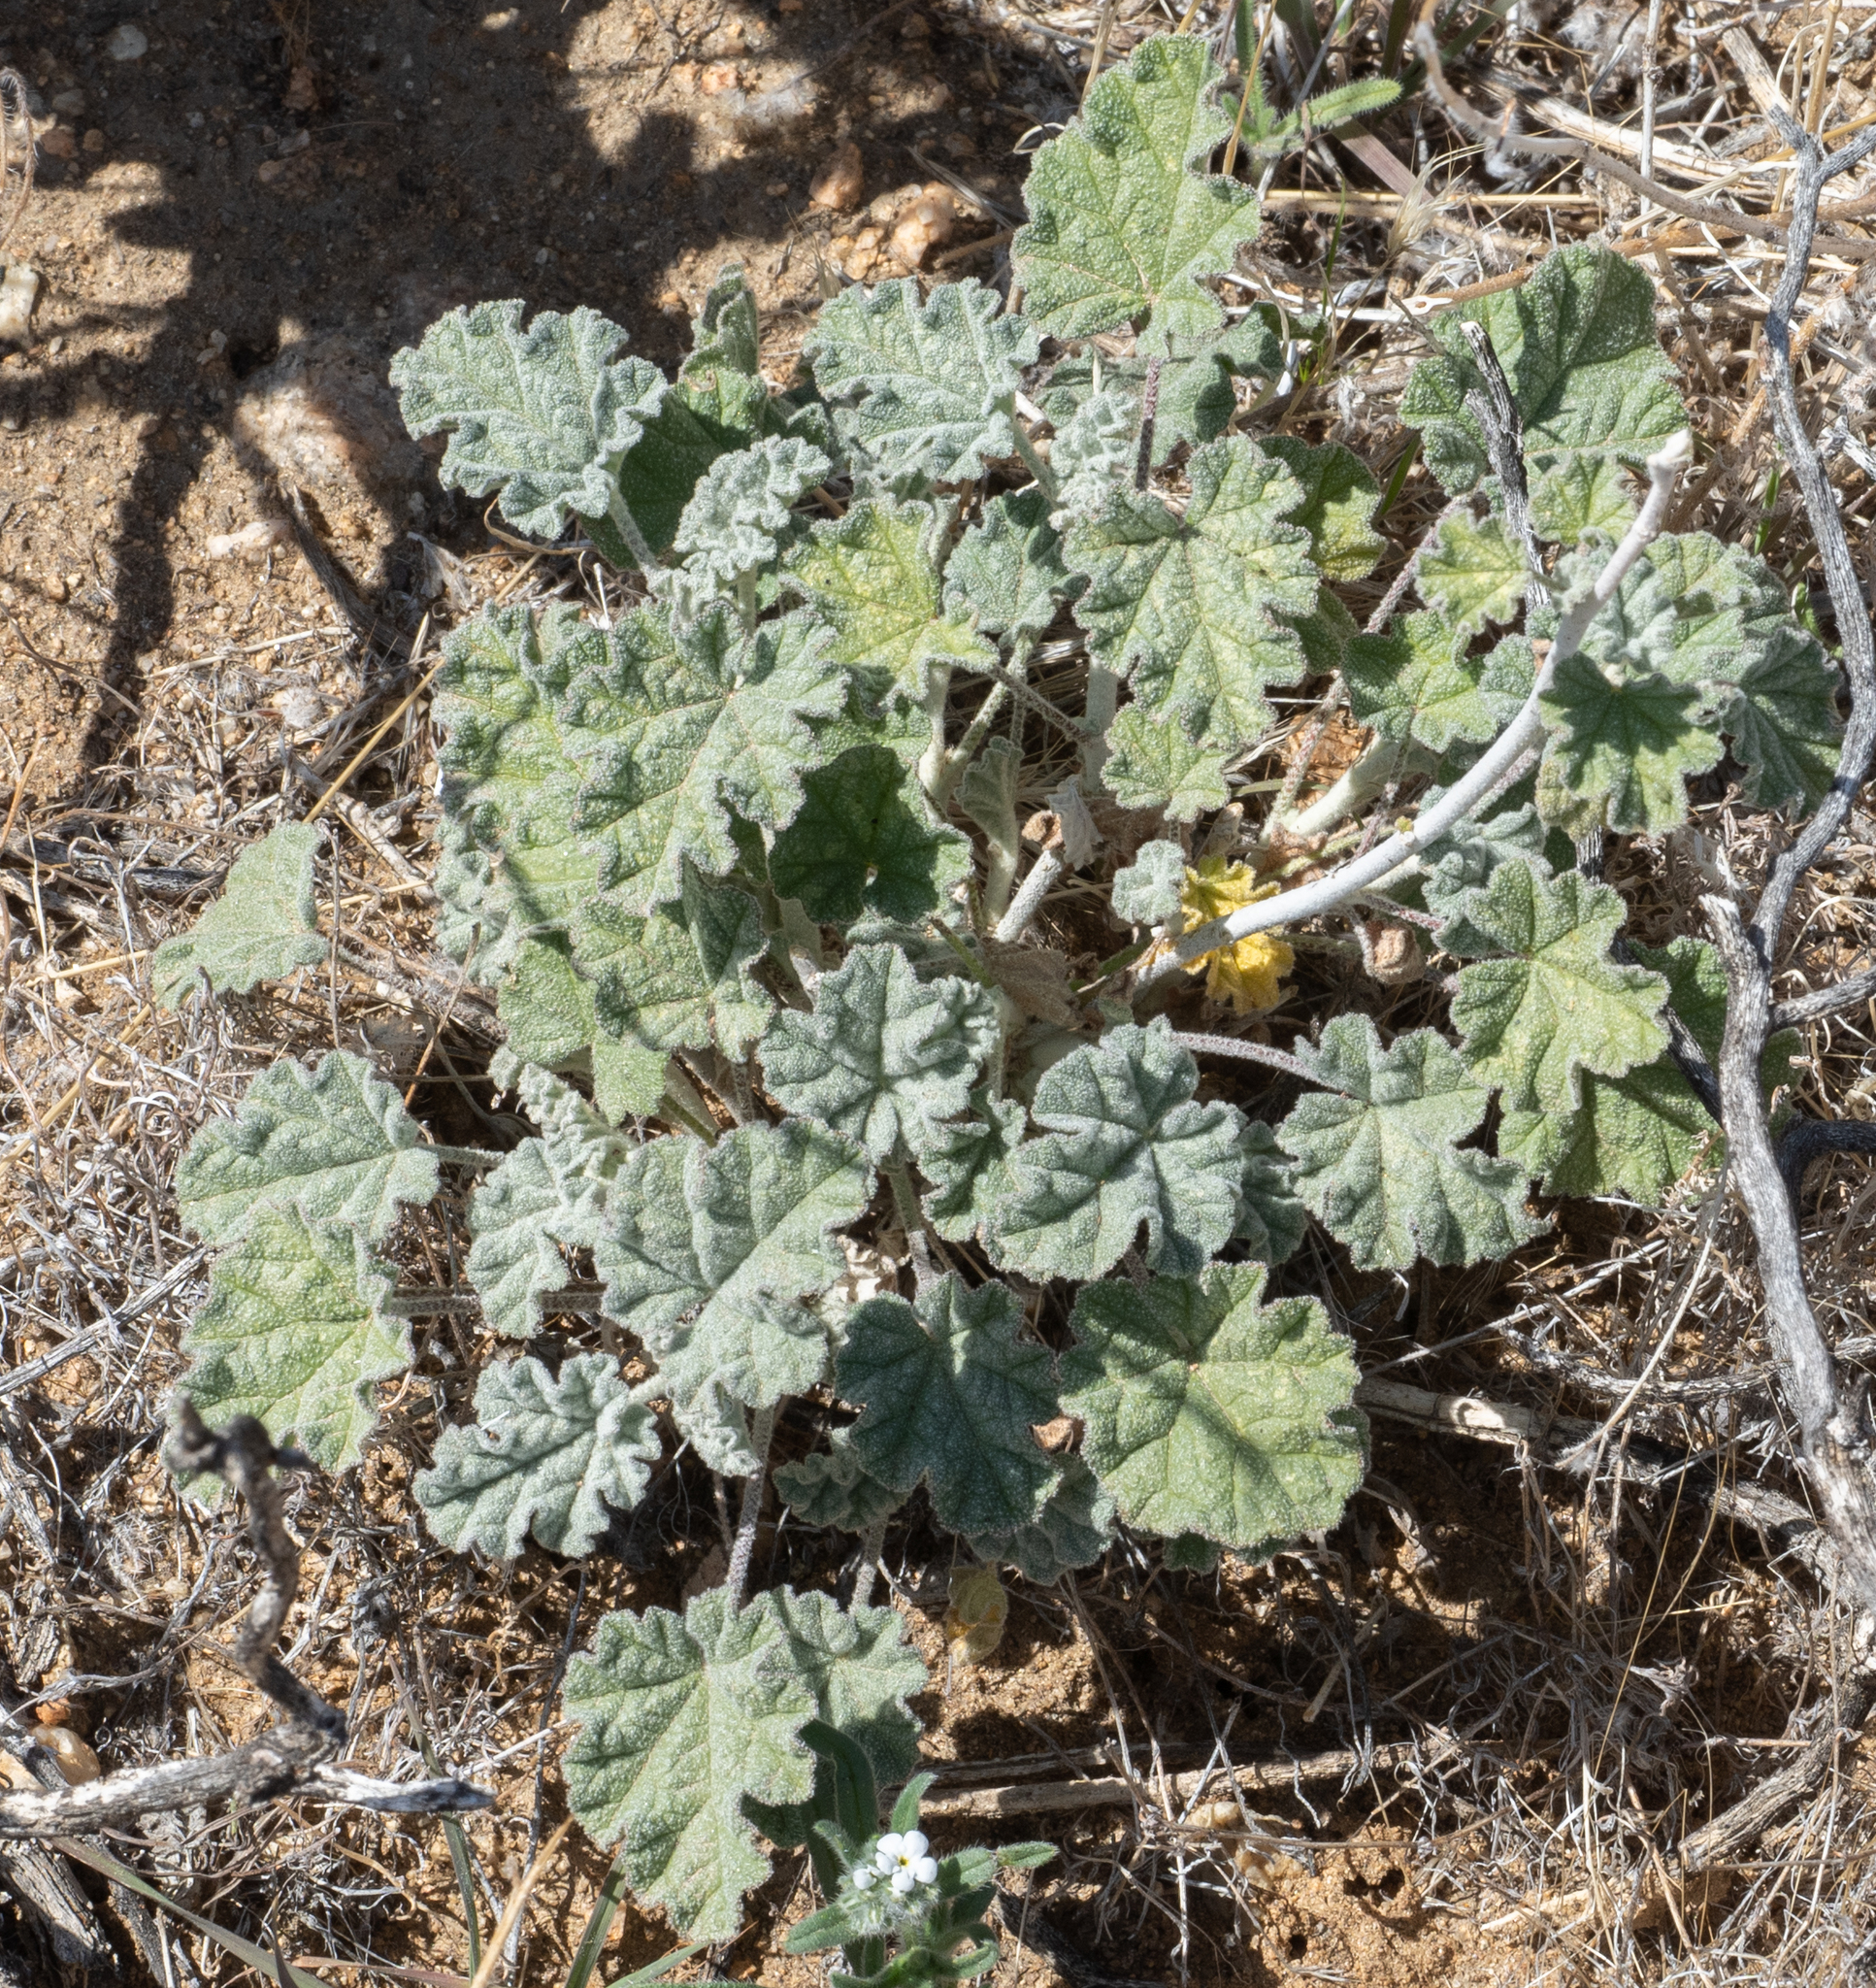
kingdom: Plantae
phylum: Tracheophyta
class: Magnoliopsida
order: Malvales
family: Malvaceae
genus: Sphaeralcea
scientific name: Sphaeralcea ambigua
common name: Apricot globe-mallow
